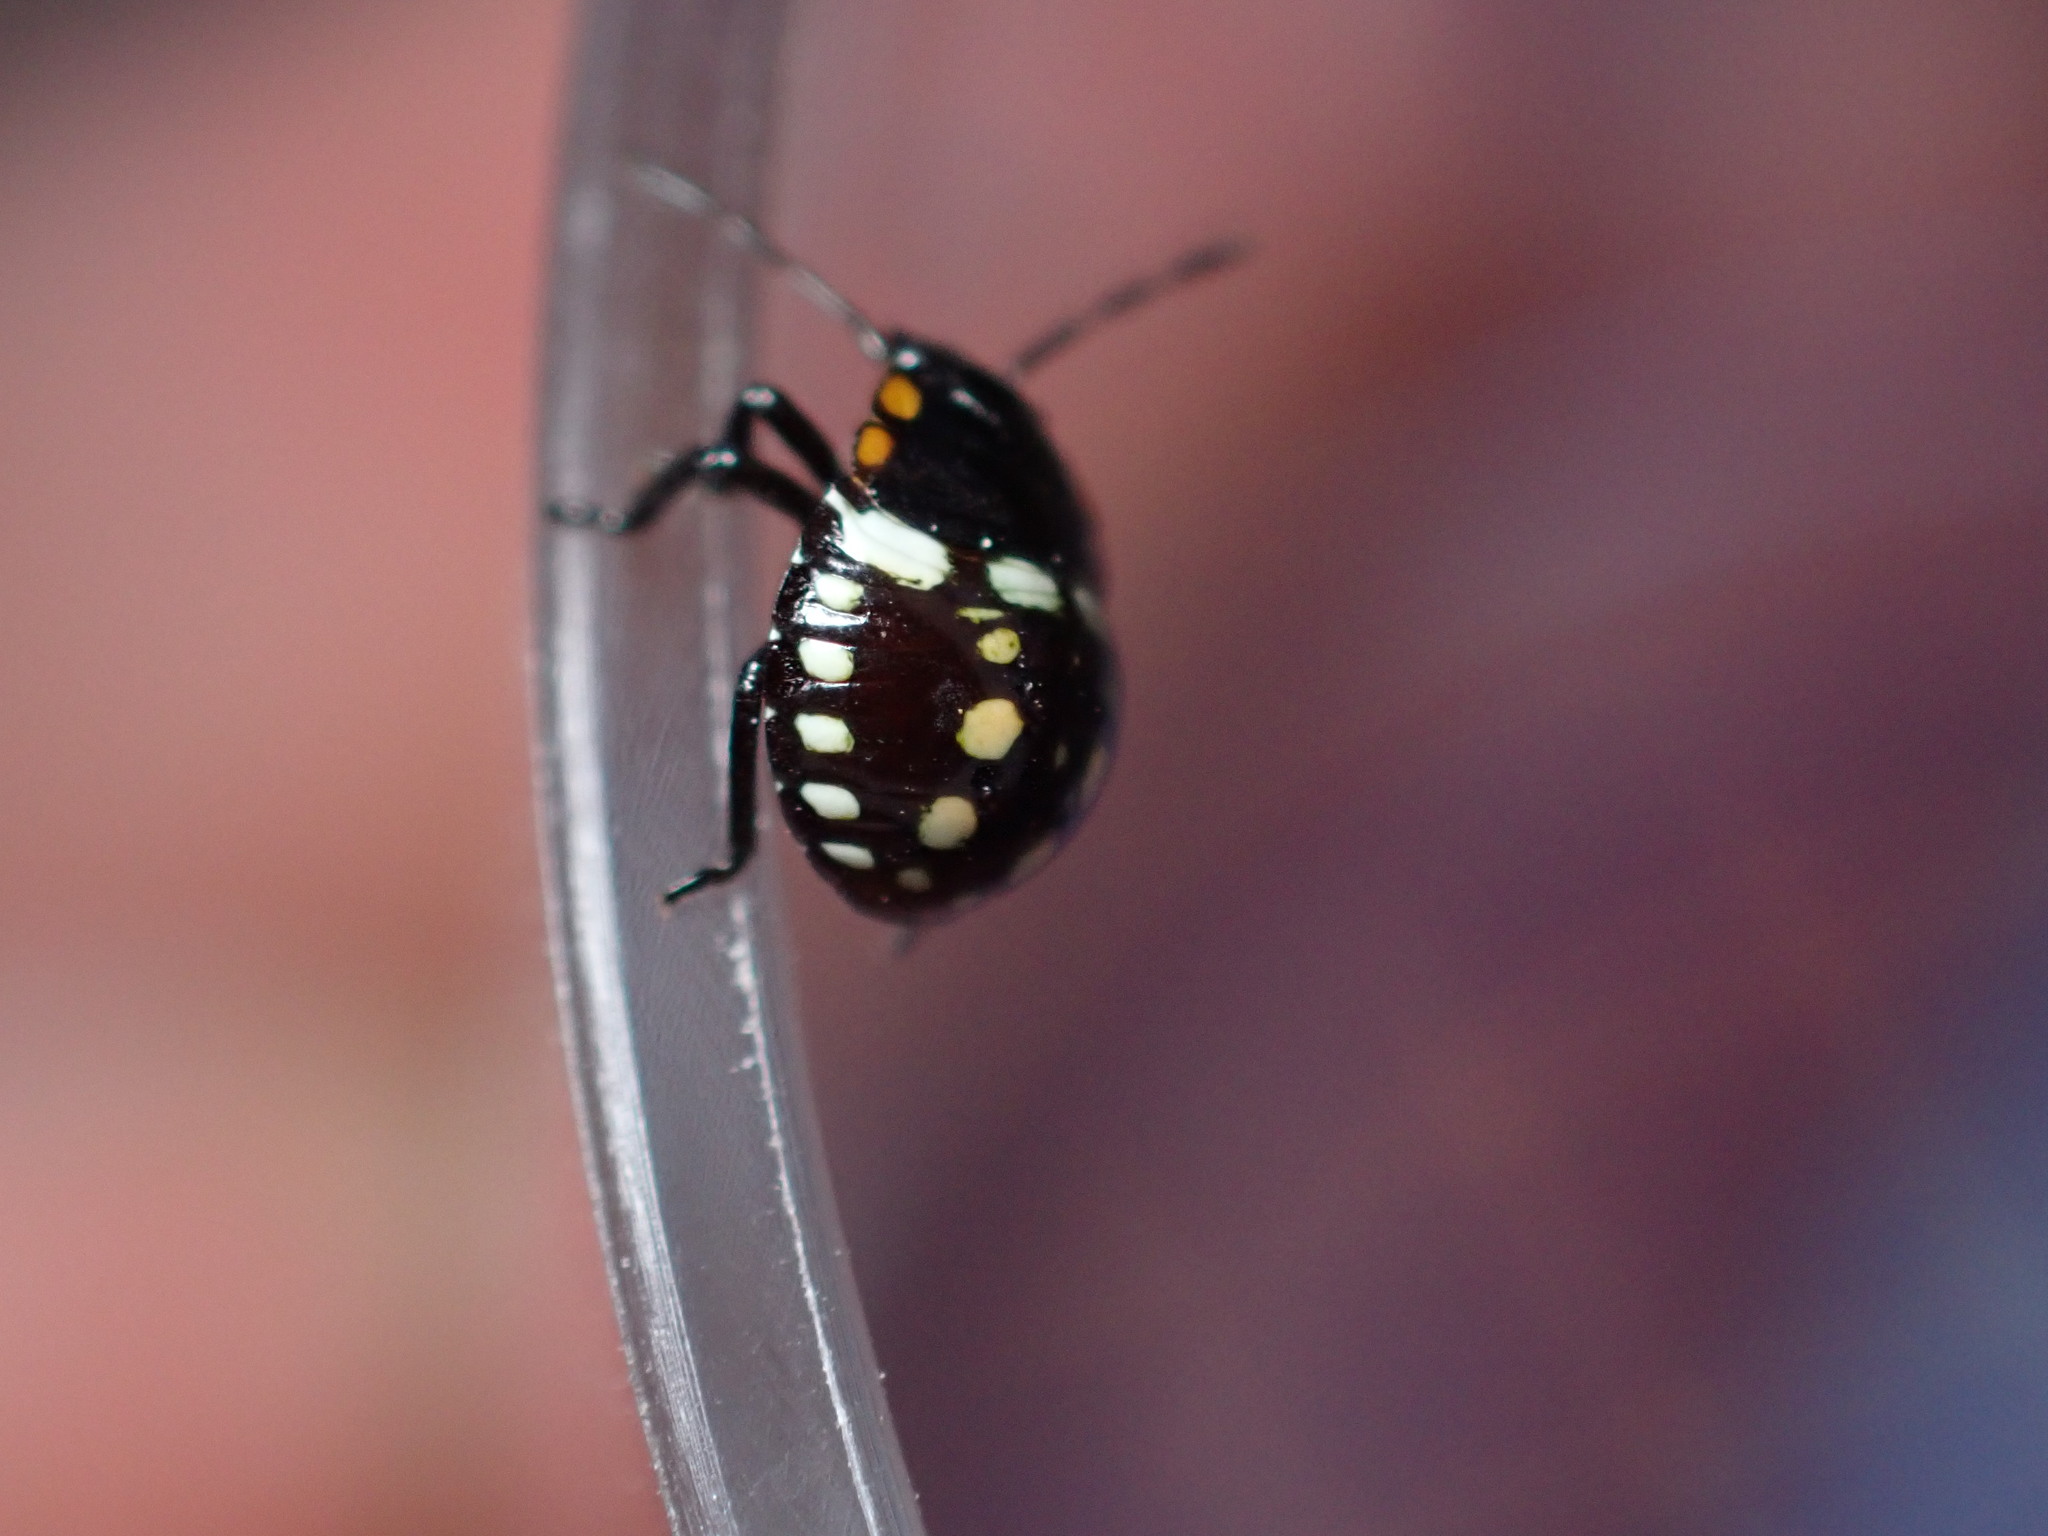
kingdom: Animalia
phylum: Arthropoda
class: Insecta
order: Hemiptera
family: Pentatomidae
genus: Nezara
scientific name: Nezara viridula
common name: Southern green stink bug
